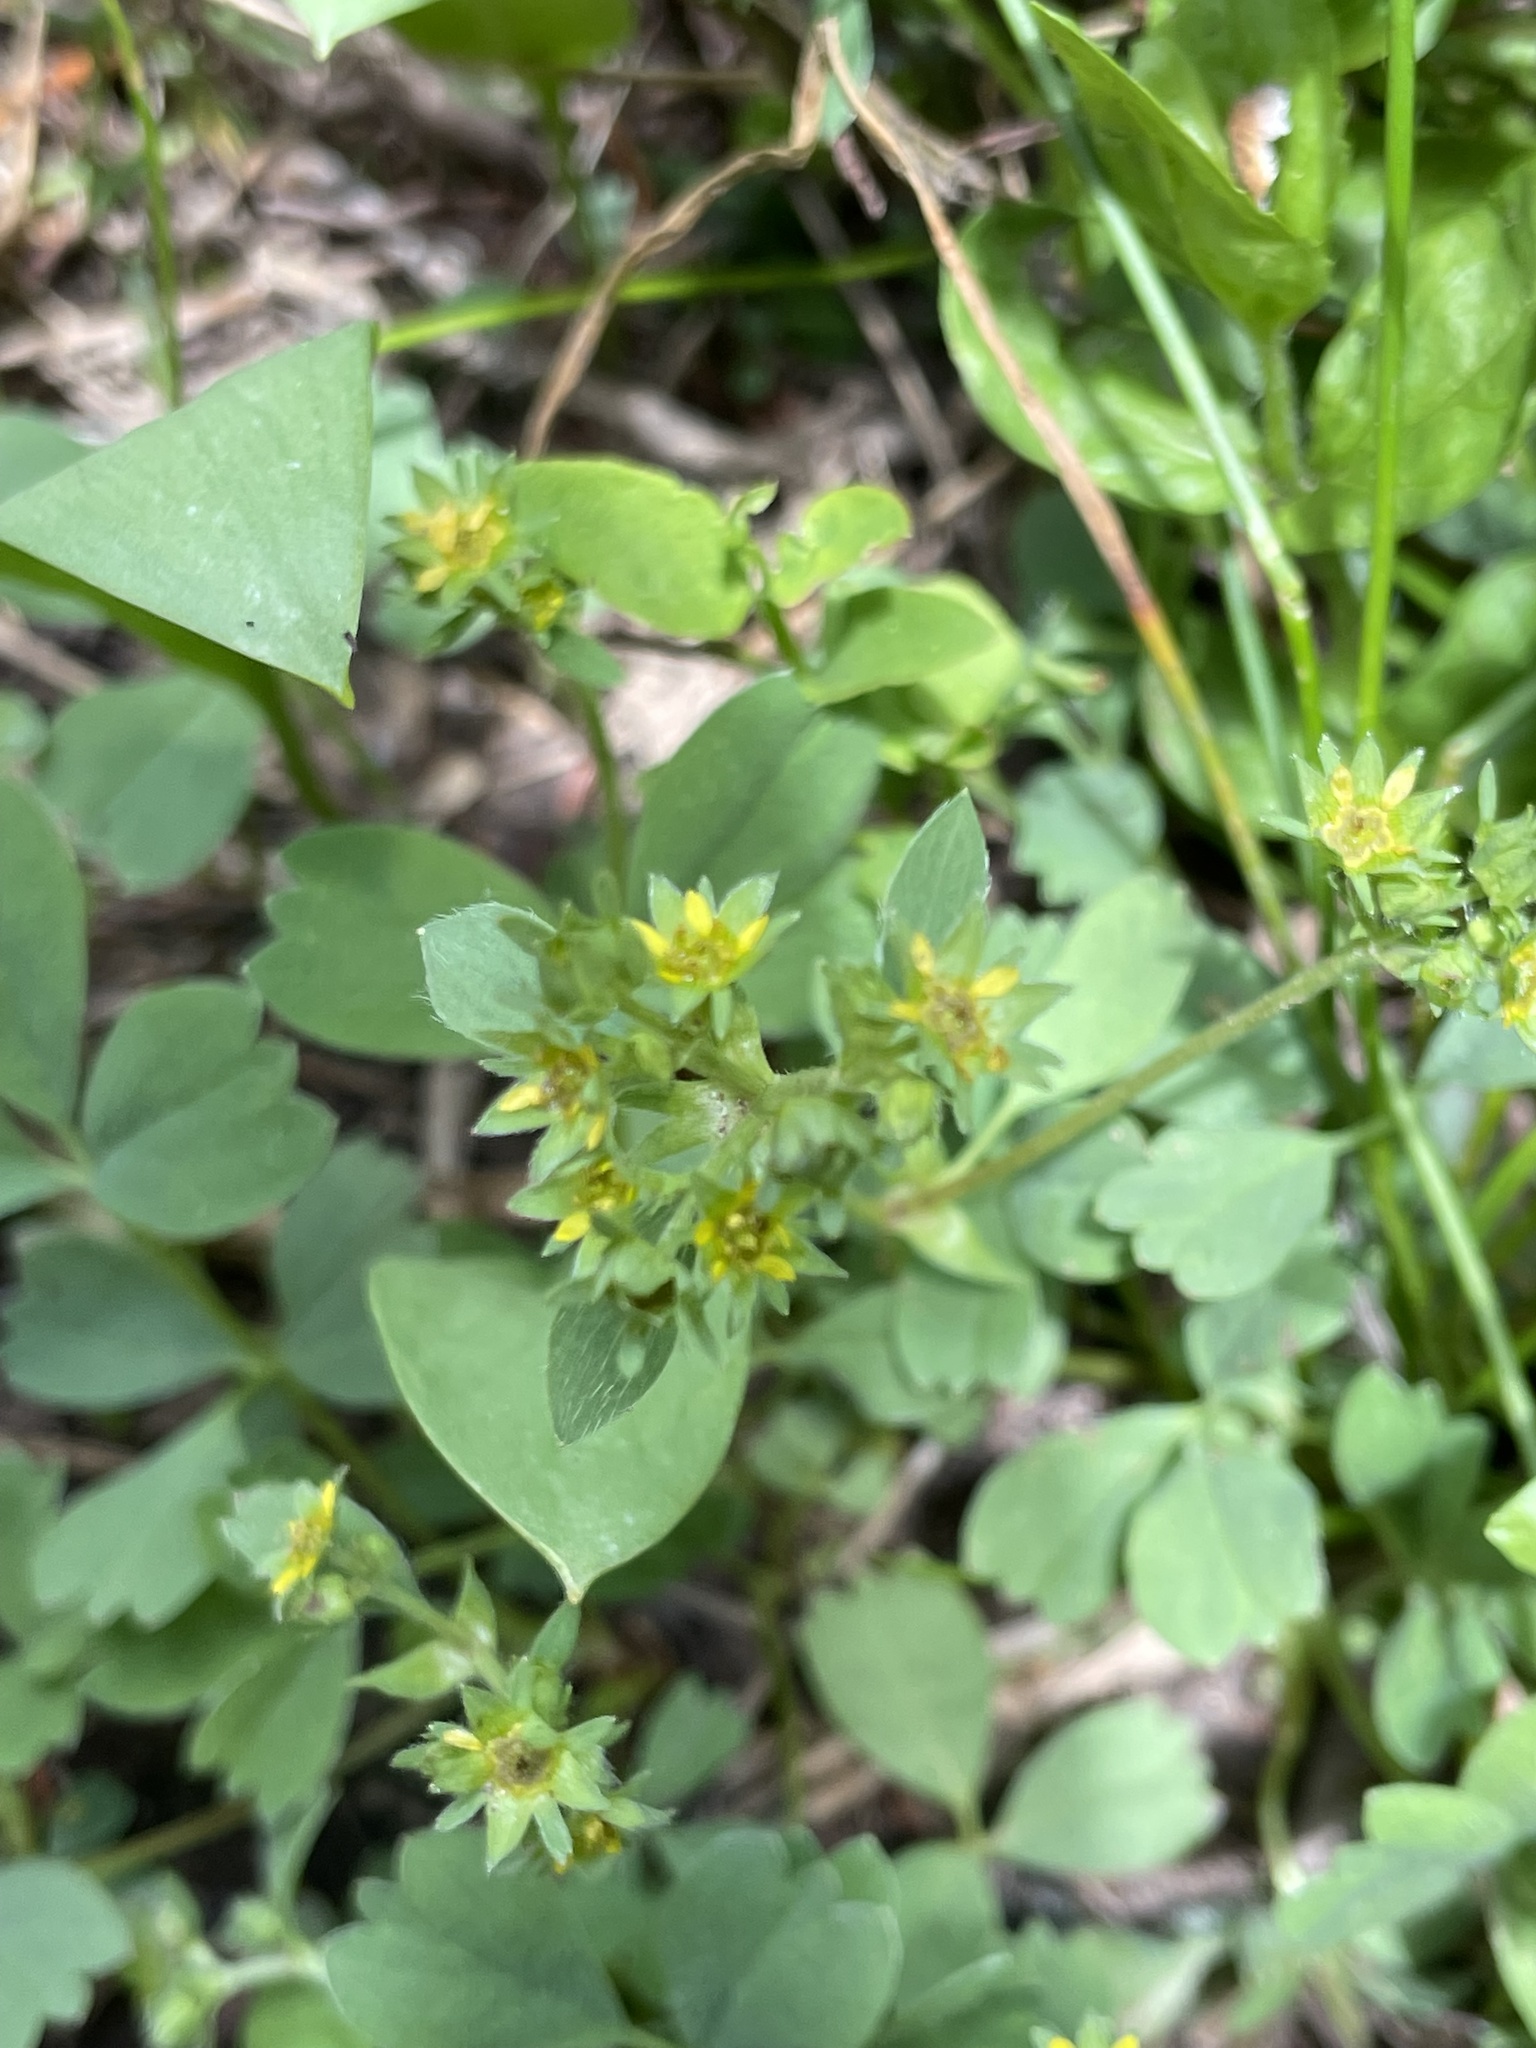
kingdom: Plantae
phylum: Tracheophyta
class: Magnoliopsida
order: Rosales
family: Rosaceae
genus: Sibbaldia
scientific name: Sibbaldia procumbens
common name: Creeping sibbaldia
